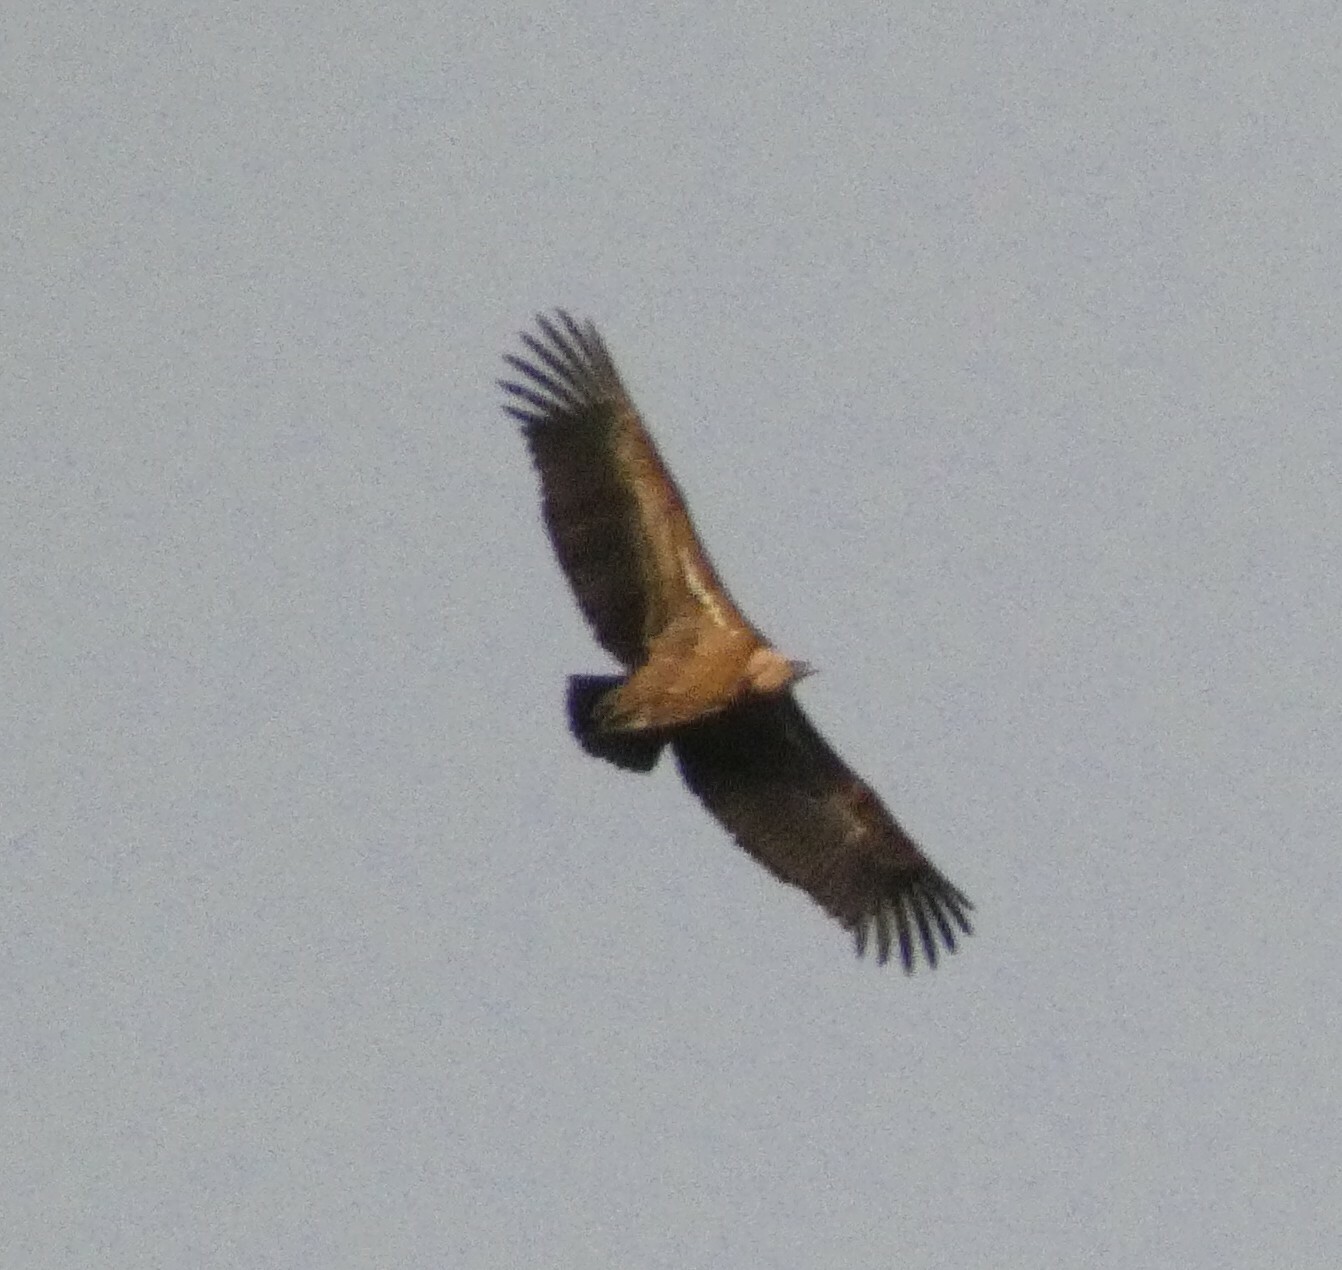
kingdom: Animalia
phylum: Chordata
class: Aves
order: Accipitriformes
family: Accipitridae
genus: Gyps
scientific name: Gyps fulvus
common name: Griffon vulture
